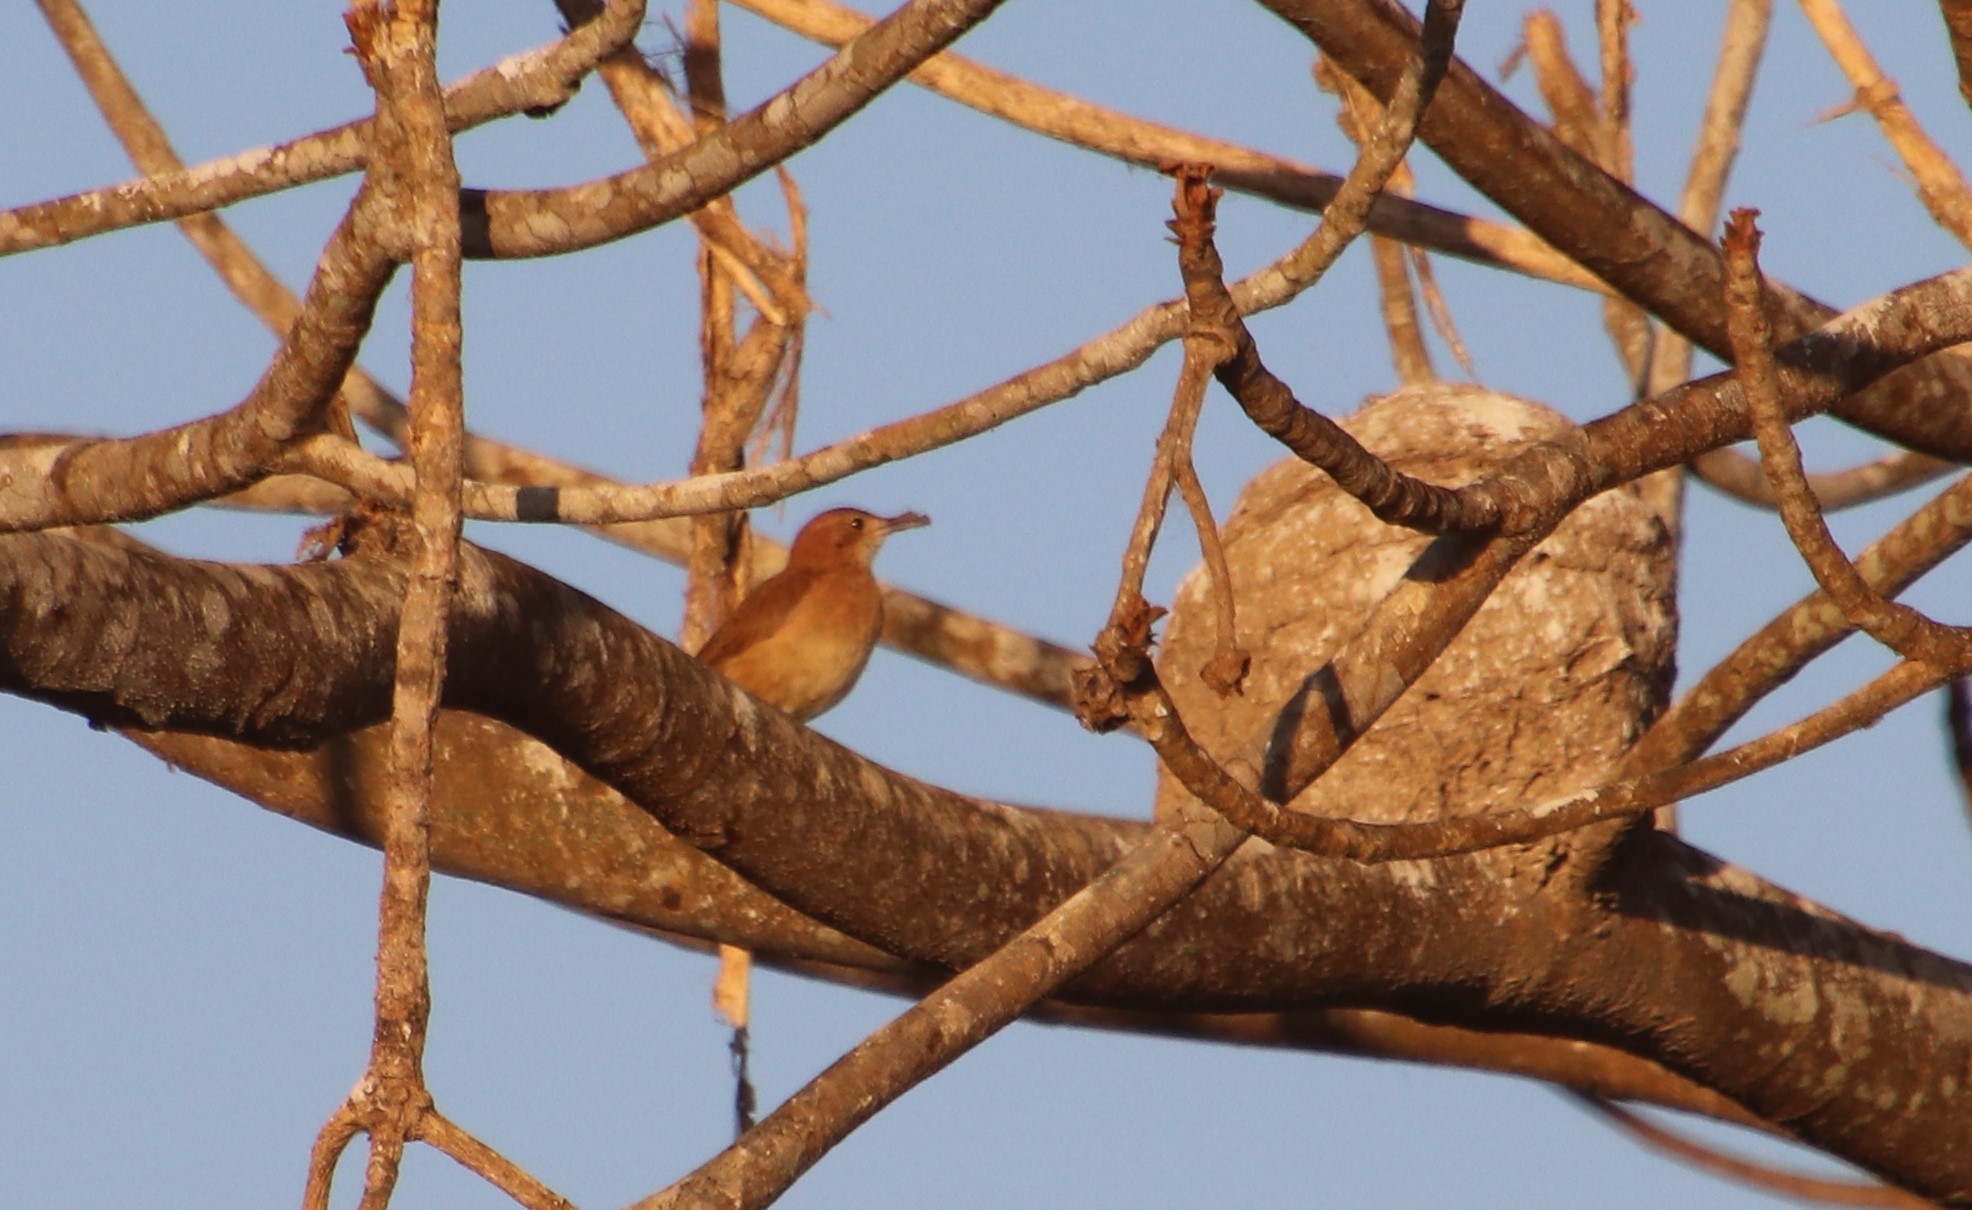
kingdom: Animalia
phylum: Chordata
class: Aves
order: Passeriformes
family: Furnariidae
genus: Furnarius
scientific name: Furnarius rufus
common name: Rufous hornero
